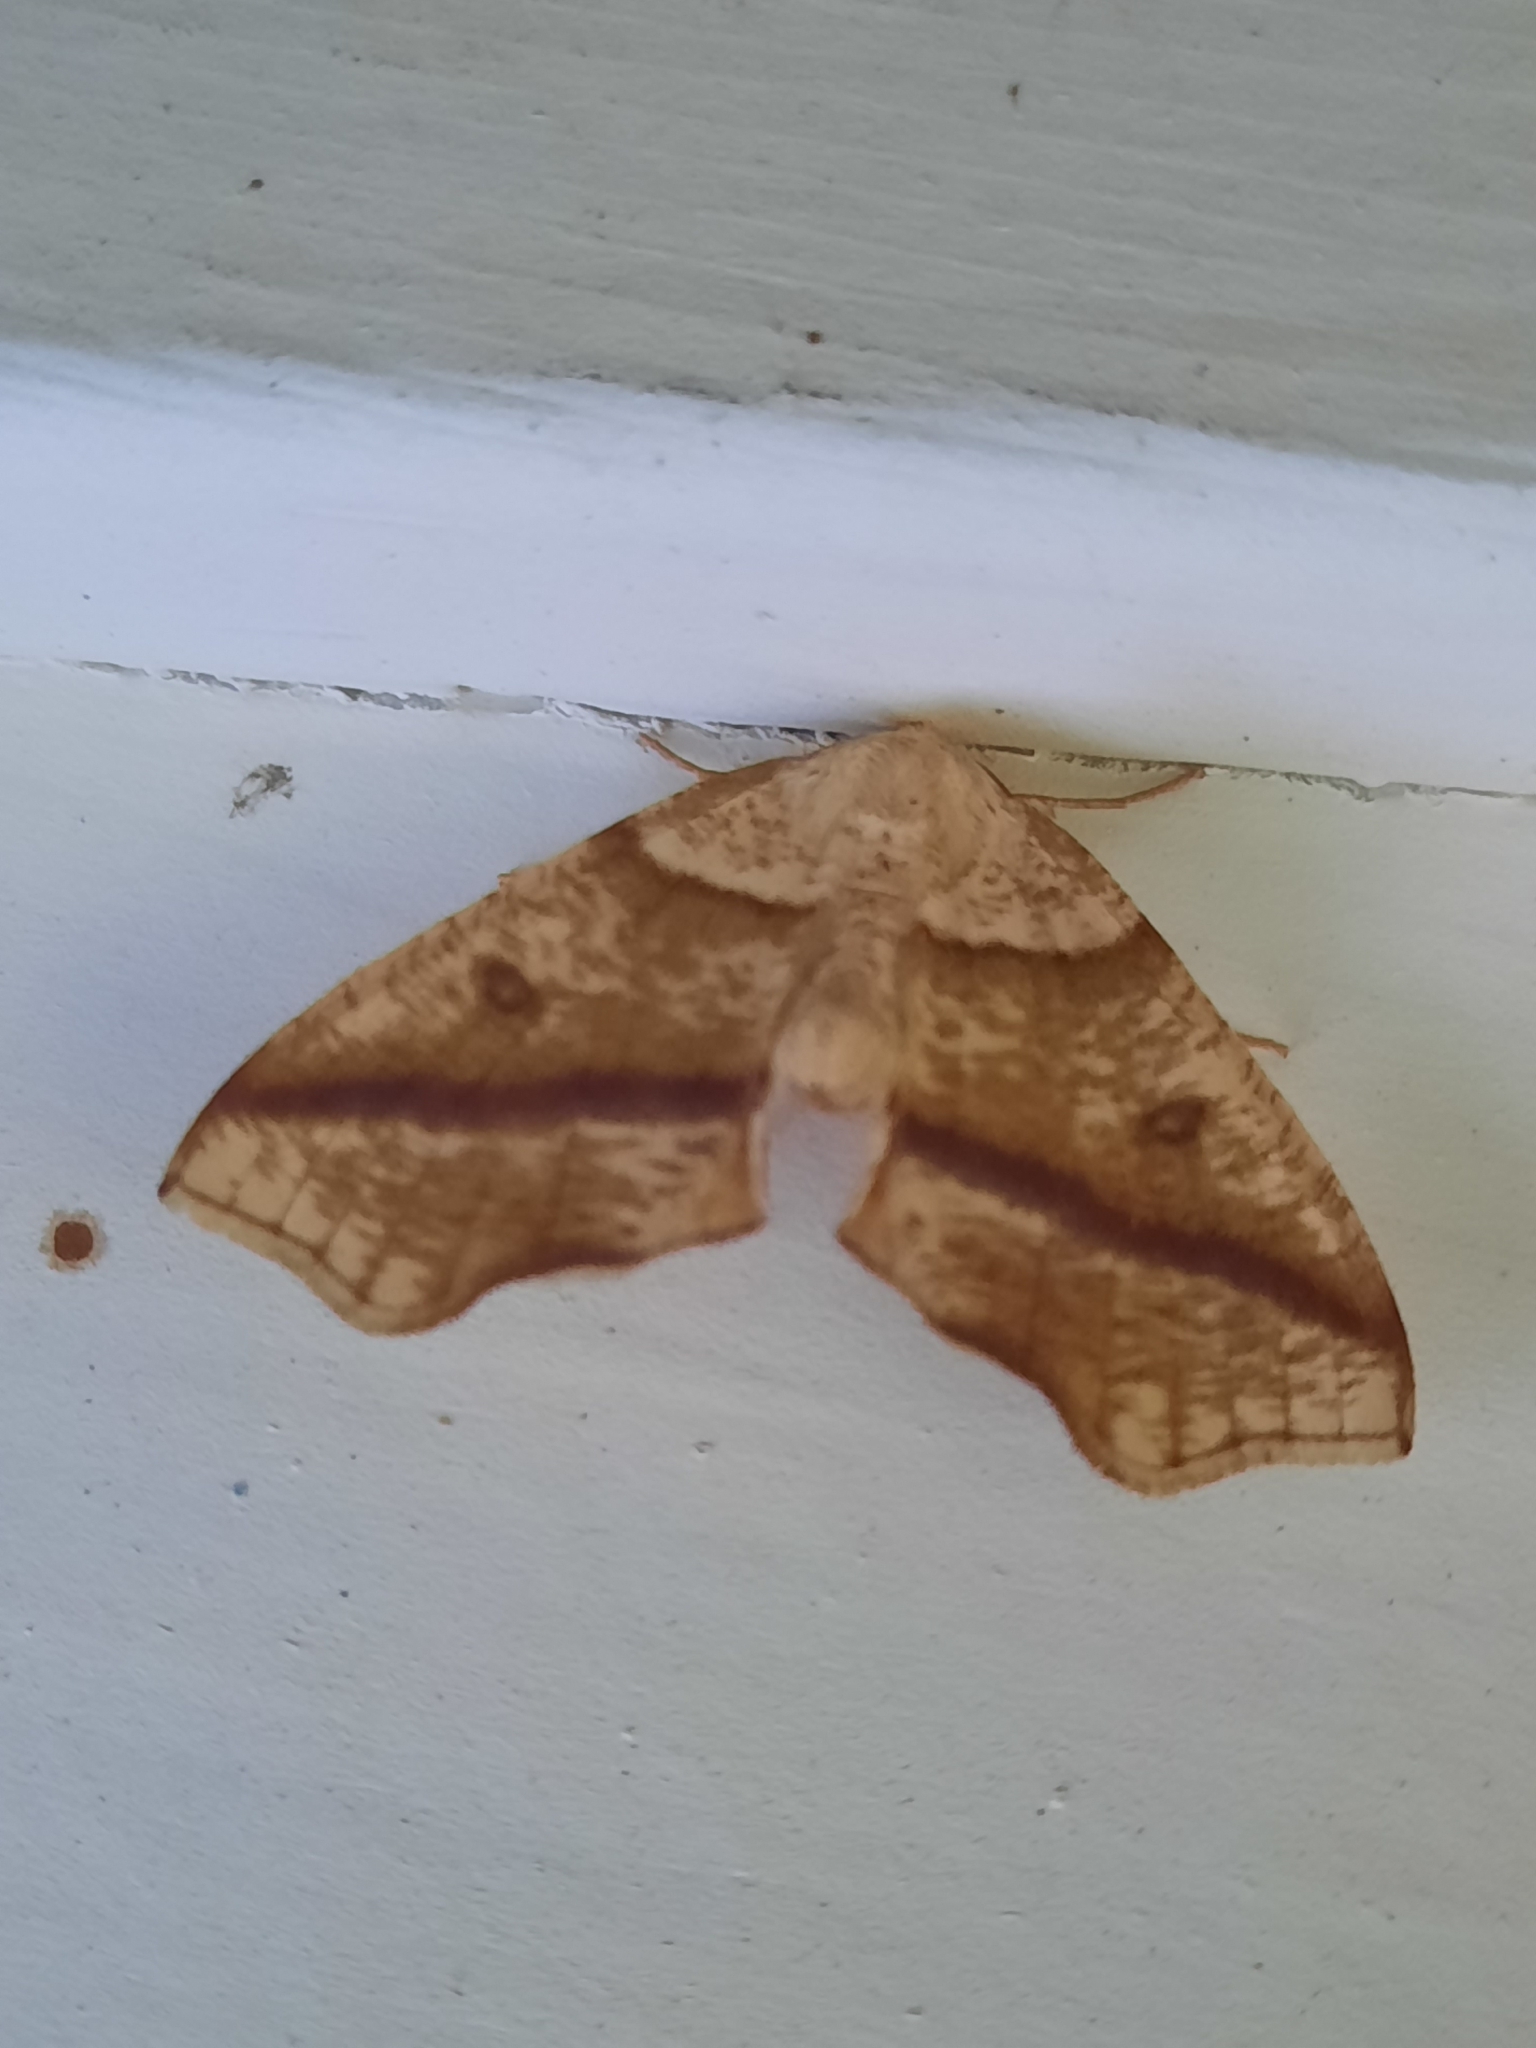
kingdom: Animalia
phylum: Arthropoda
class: Insecta
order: Lepidoptera
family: Geometridae
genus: Plagodis
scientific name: Plagodis alcoolaria
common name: Hollow-spotted plagodis
